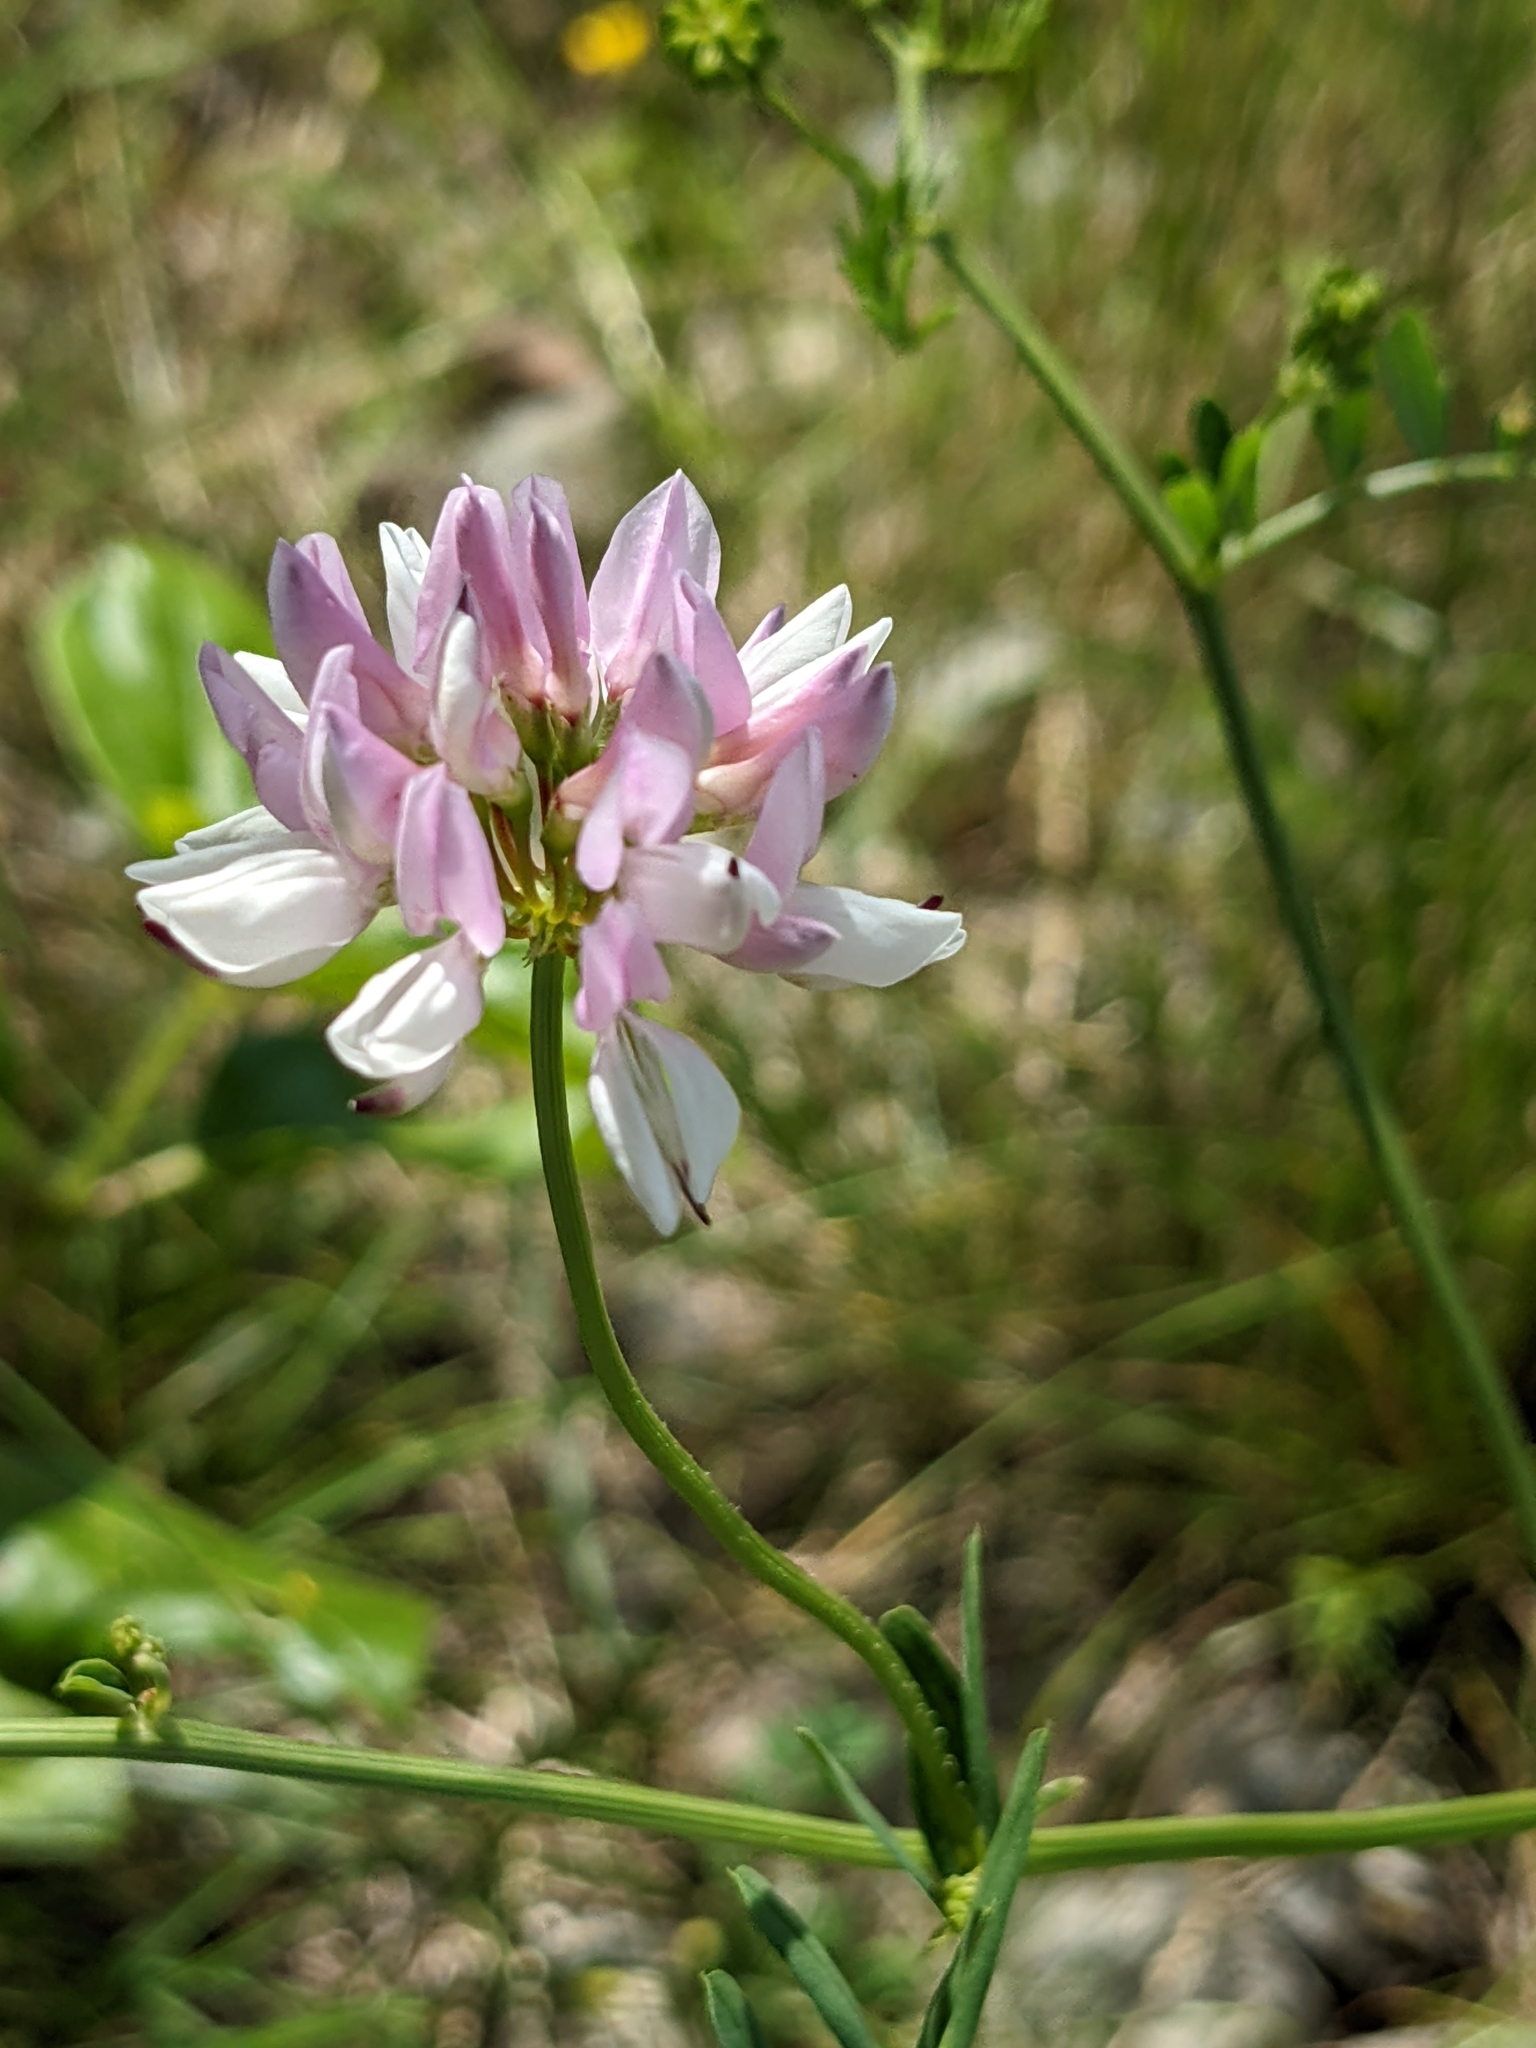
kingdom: Plantae
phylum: Tracheophyta
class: Magnoliopsida
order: Fabales
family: Fabaceae
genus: Coronilla
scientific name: Coronilla varia
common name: Crownvetch
